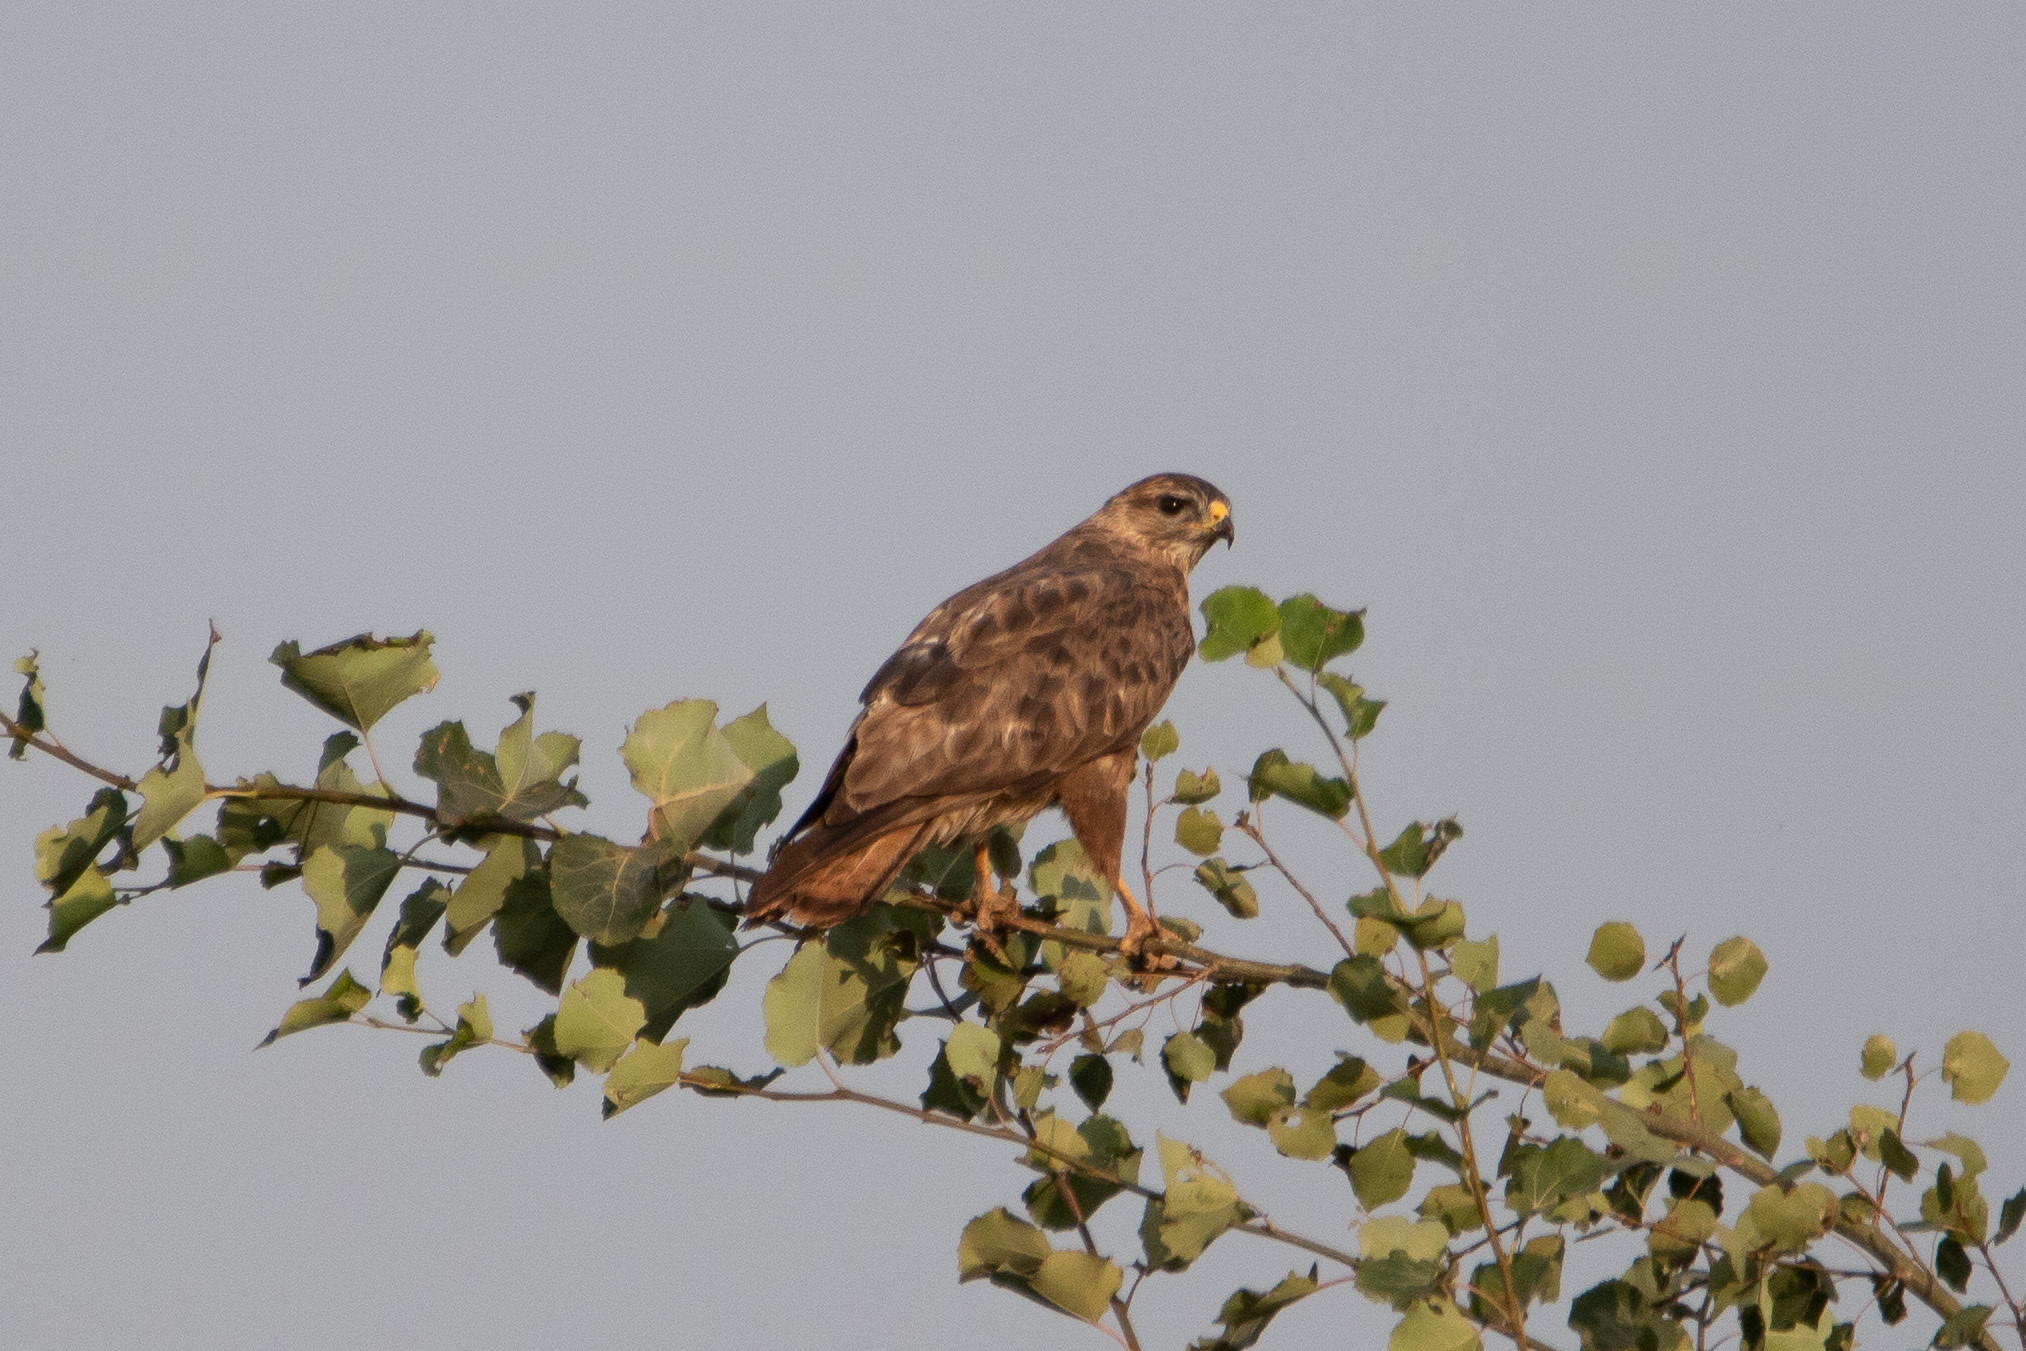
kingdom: Animalia
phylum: Chordata
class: Aves
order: Accipitriformes
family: Accipitridae
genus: Buteo
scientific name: Buteo buteo
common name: Common buzzard
